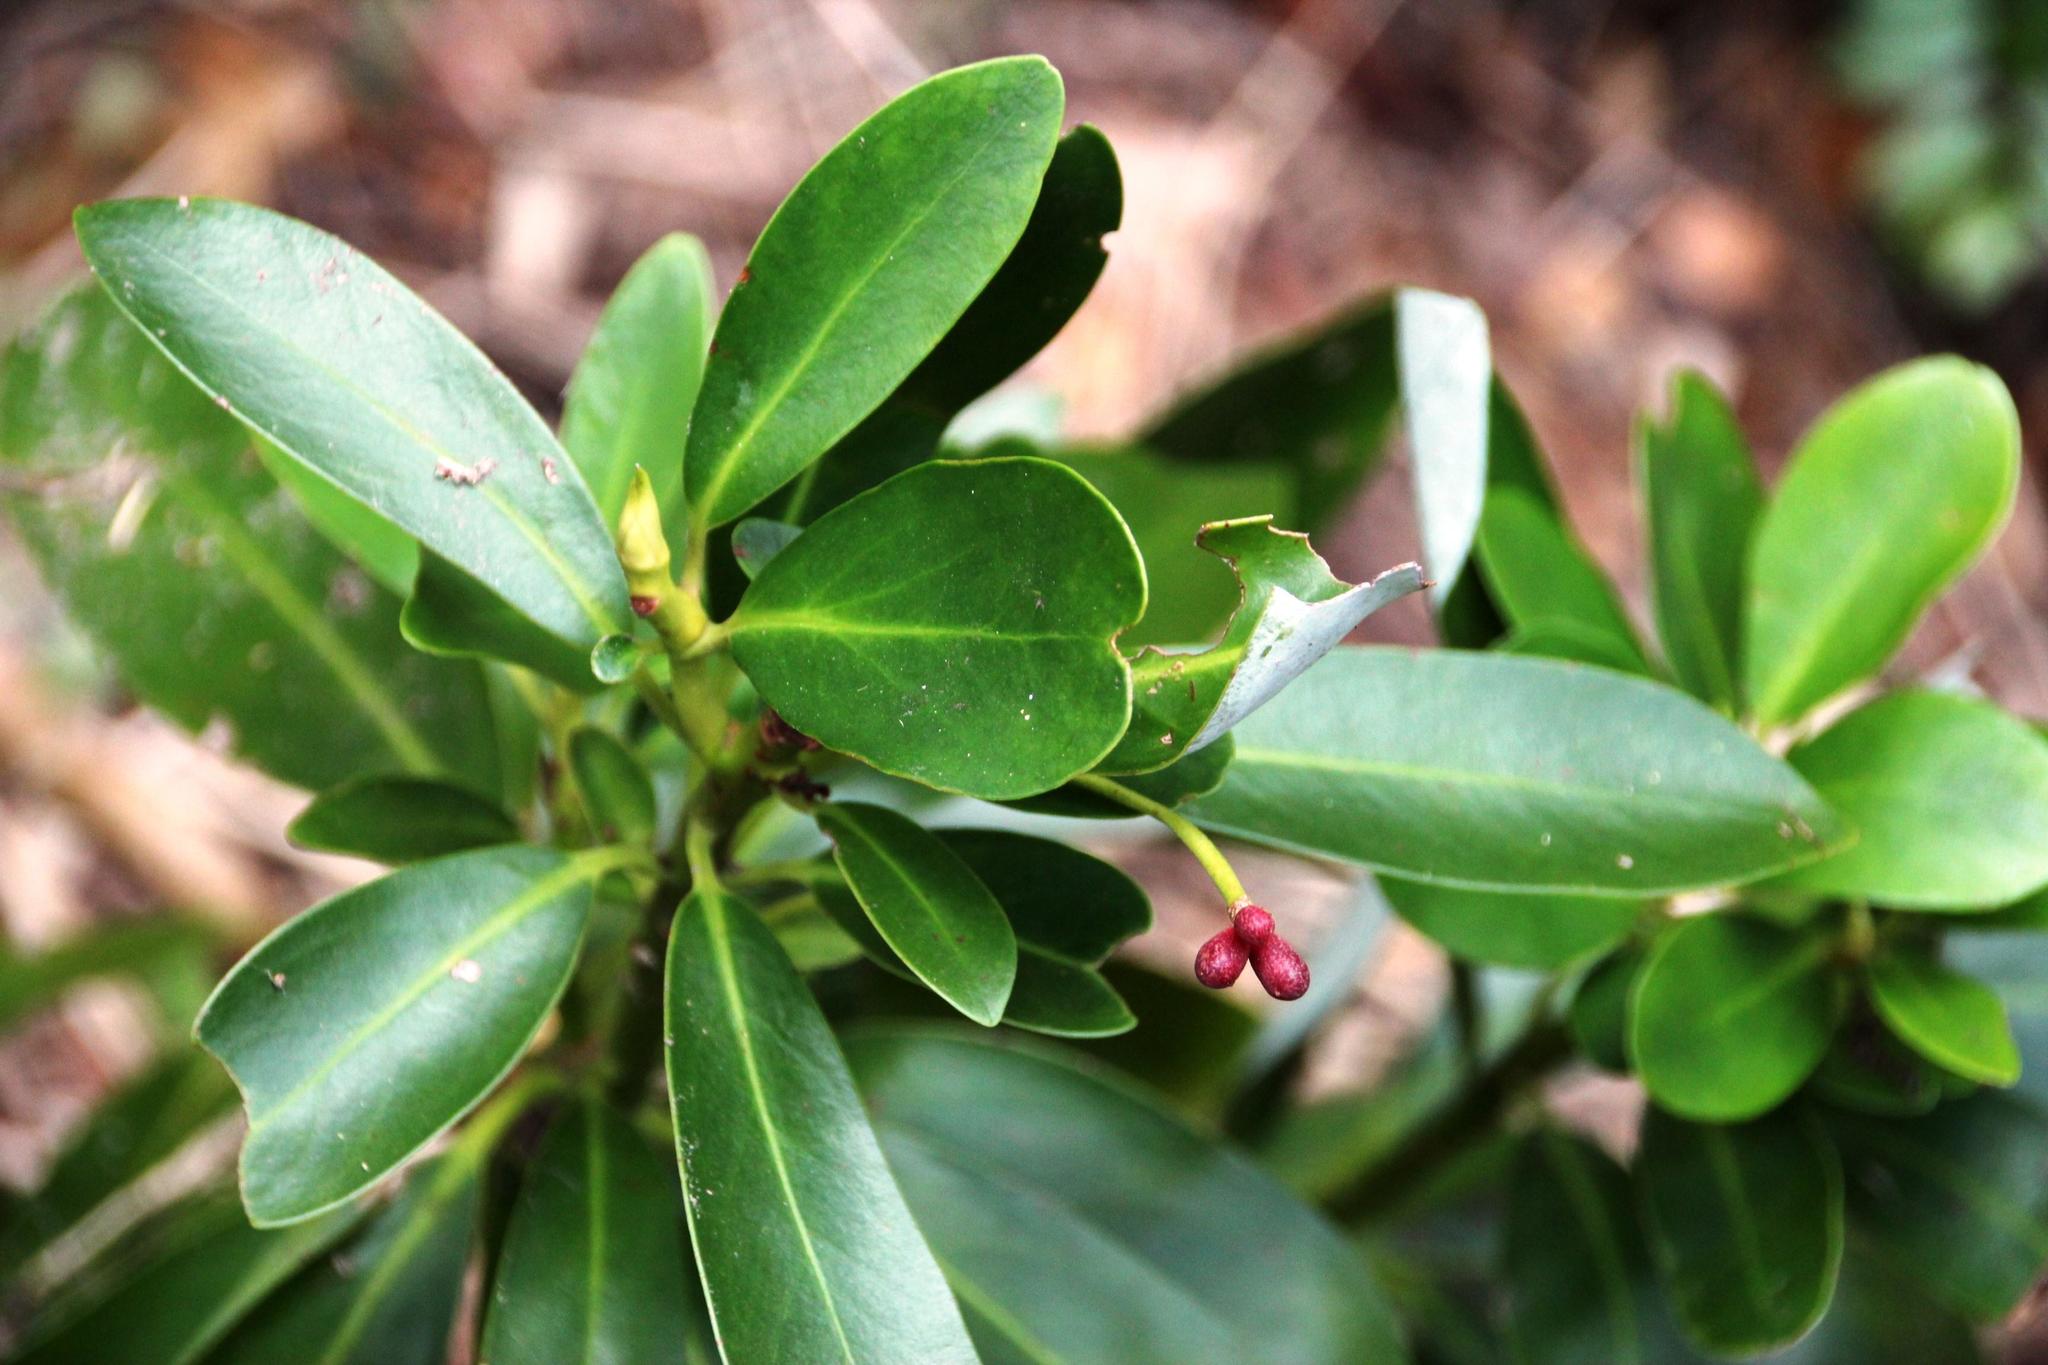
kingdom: Plantae
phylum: Tracheophyta
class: Magnoliopsida
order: Canellales
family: Winteraceae
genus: Drimys
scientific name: Drimys winteri
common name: Winter's-bark
